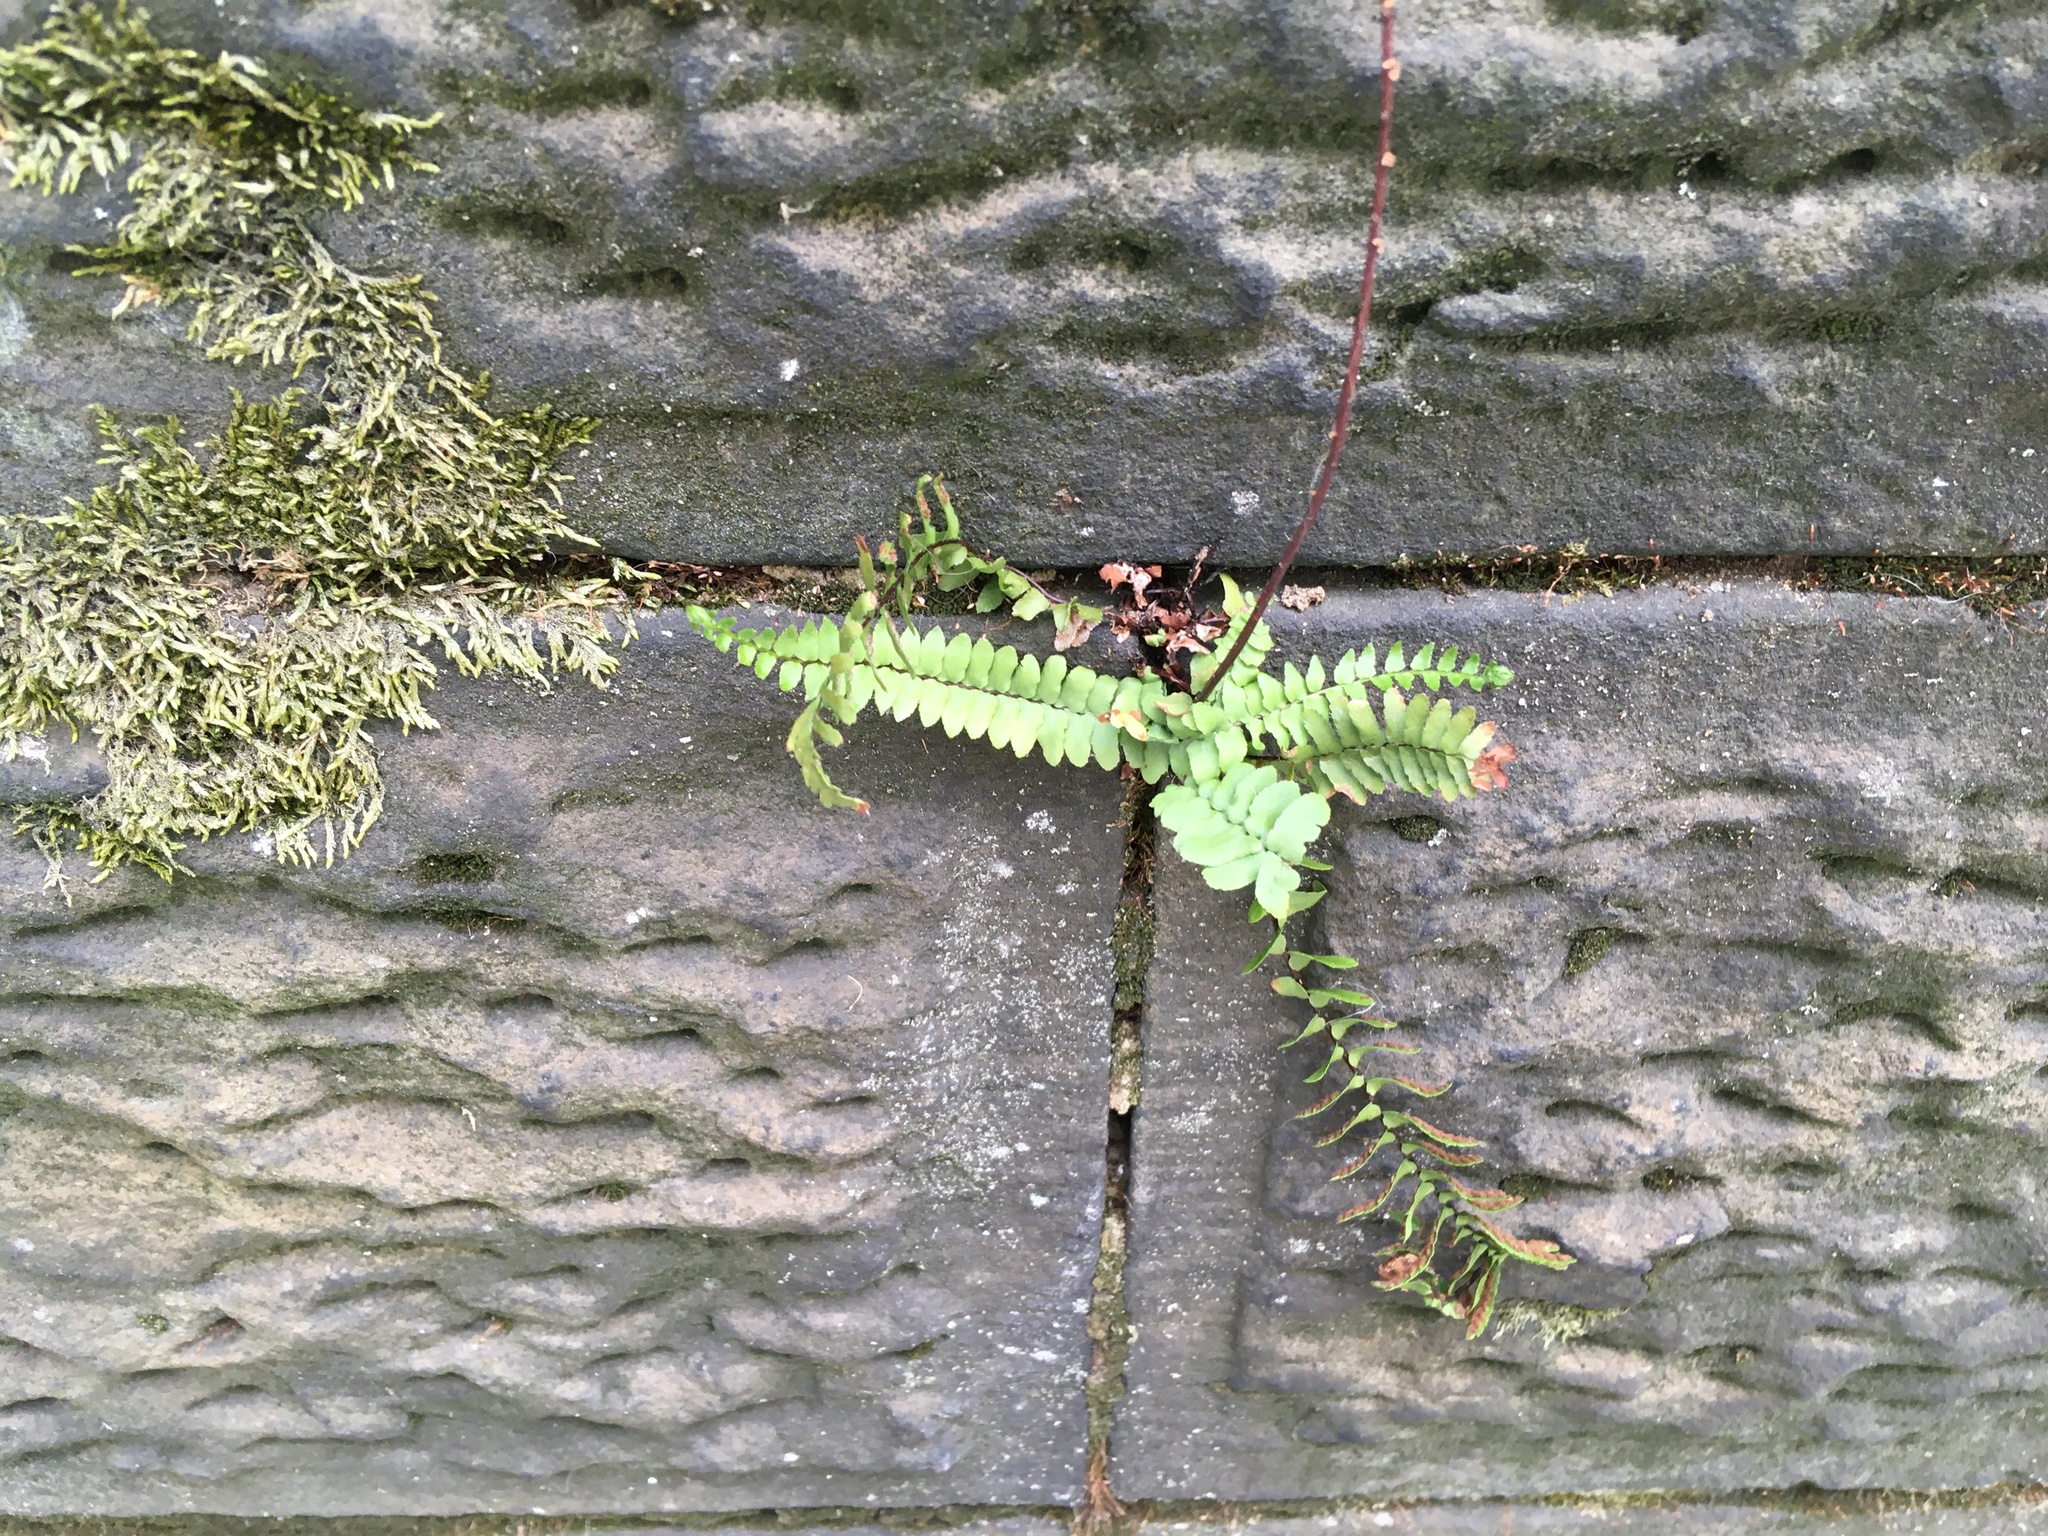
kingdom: Plantae
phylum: Tracheophyta
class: Polypodiopsida
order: Polypodiales
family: Aspleniaceae
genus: Asplenium
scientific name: Asplenium platyneuron
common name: Ebony spleenwort
